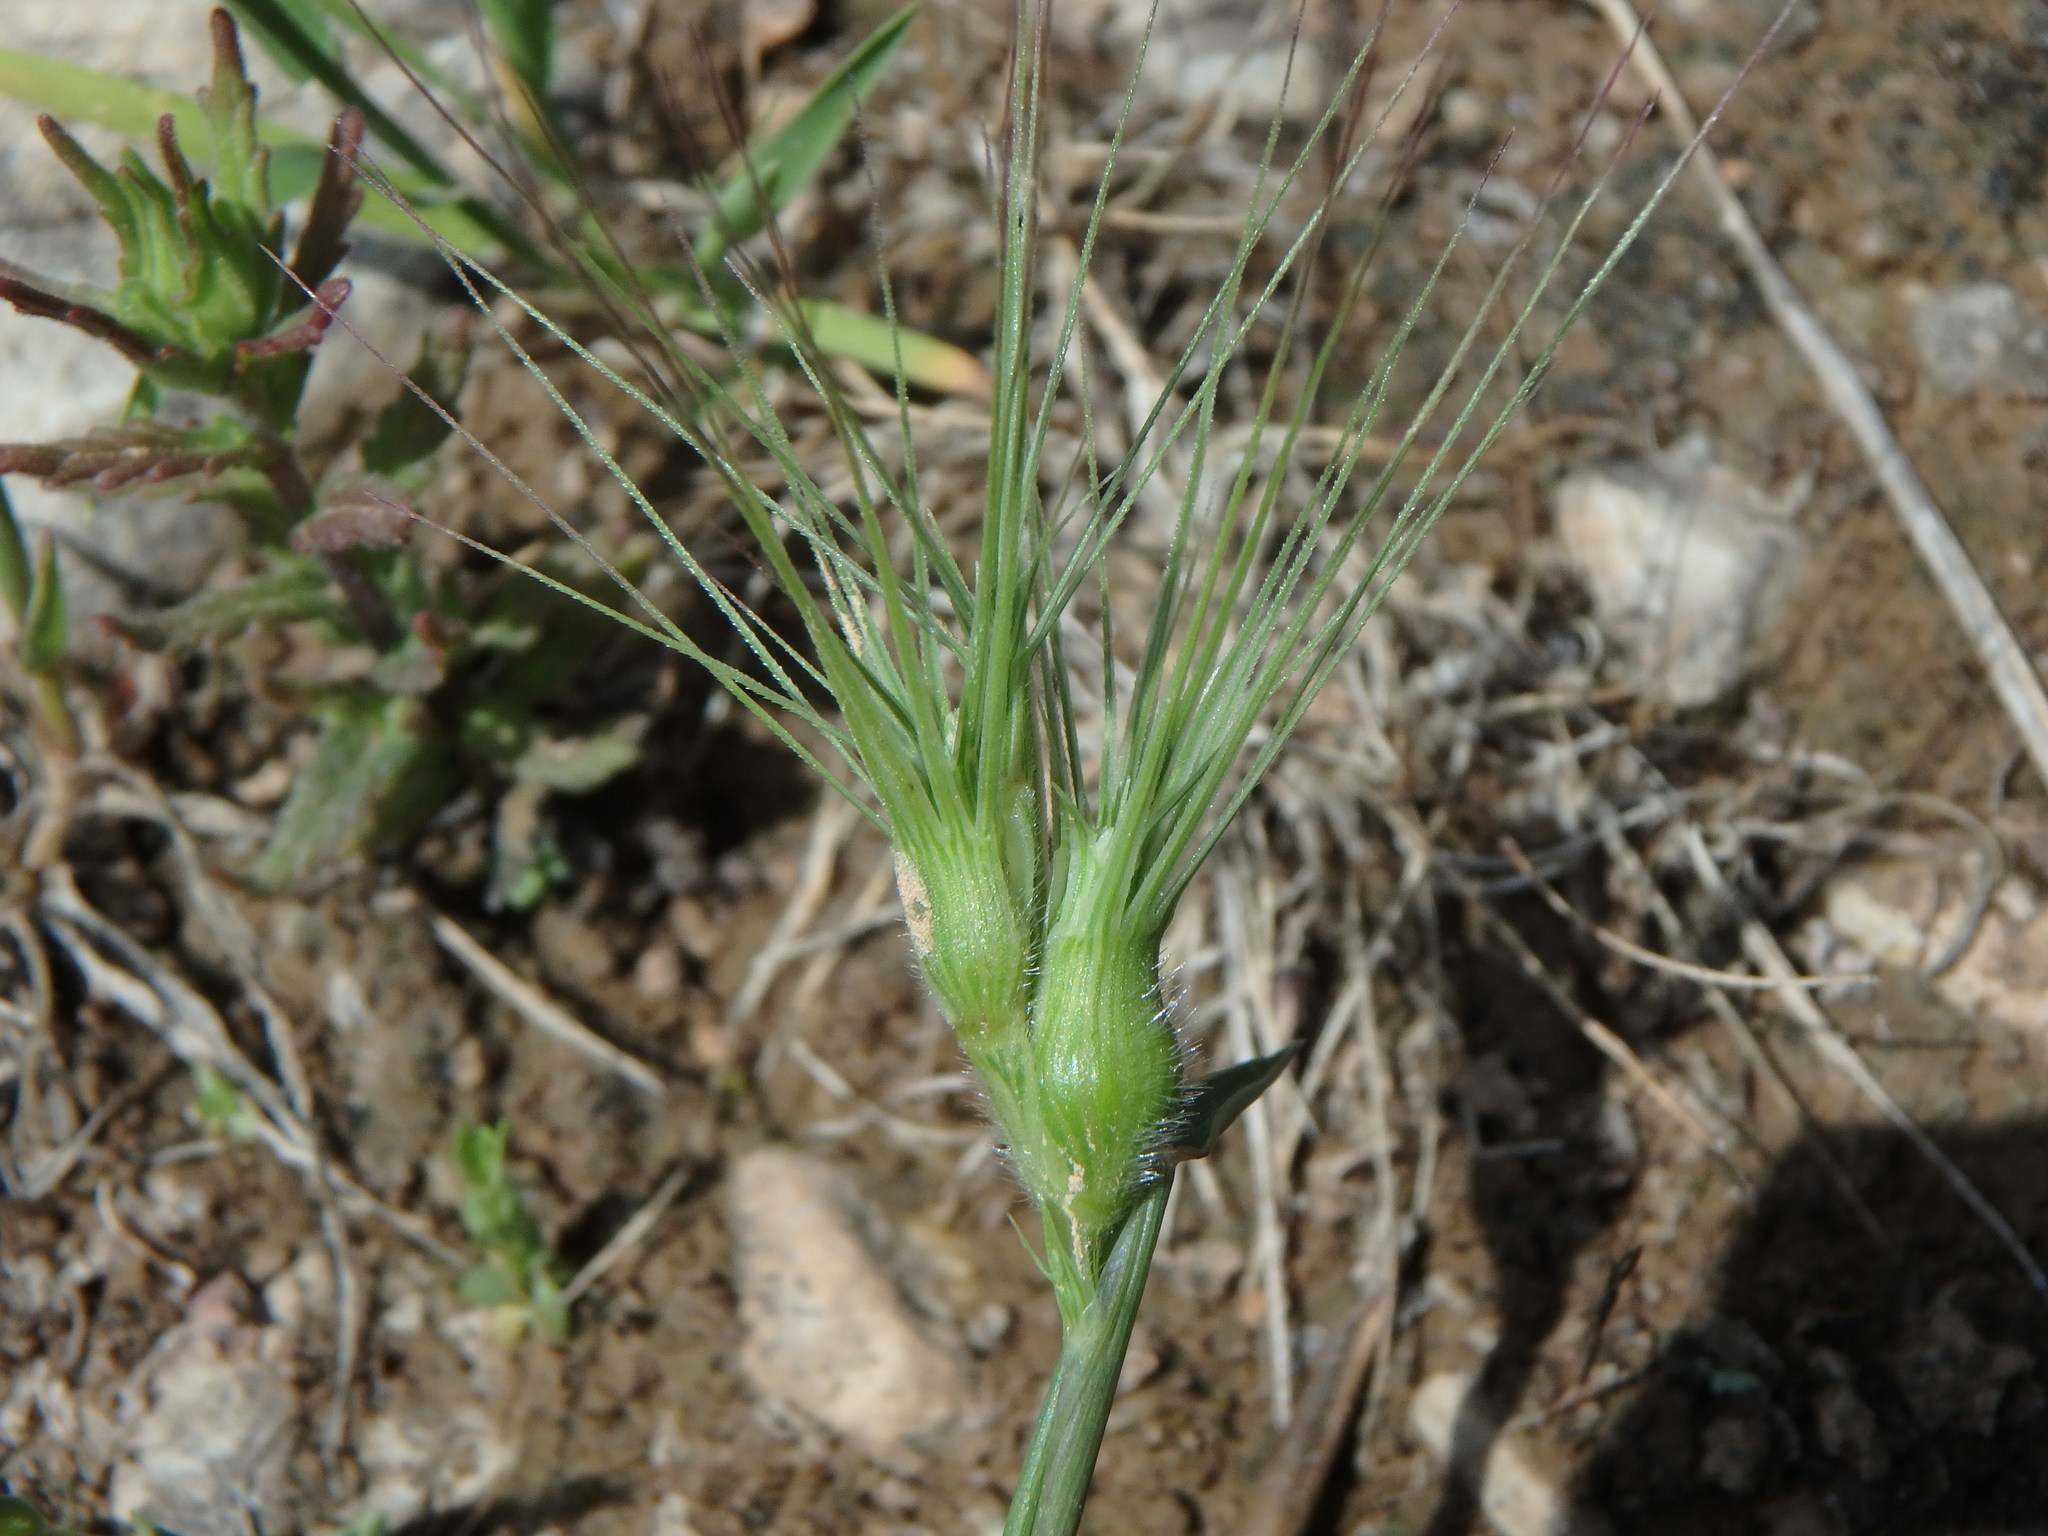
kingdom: Plantae
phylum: Tracheophyta
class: Liliopsida
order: Poales
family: Poaceae
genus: Aegilops
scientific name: Aegilops geniculata
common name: Ovate goat grass
